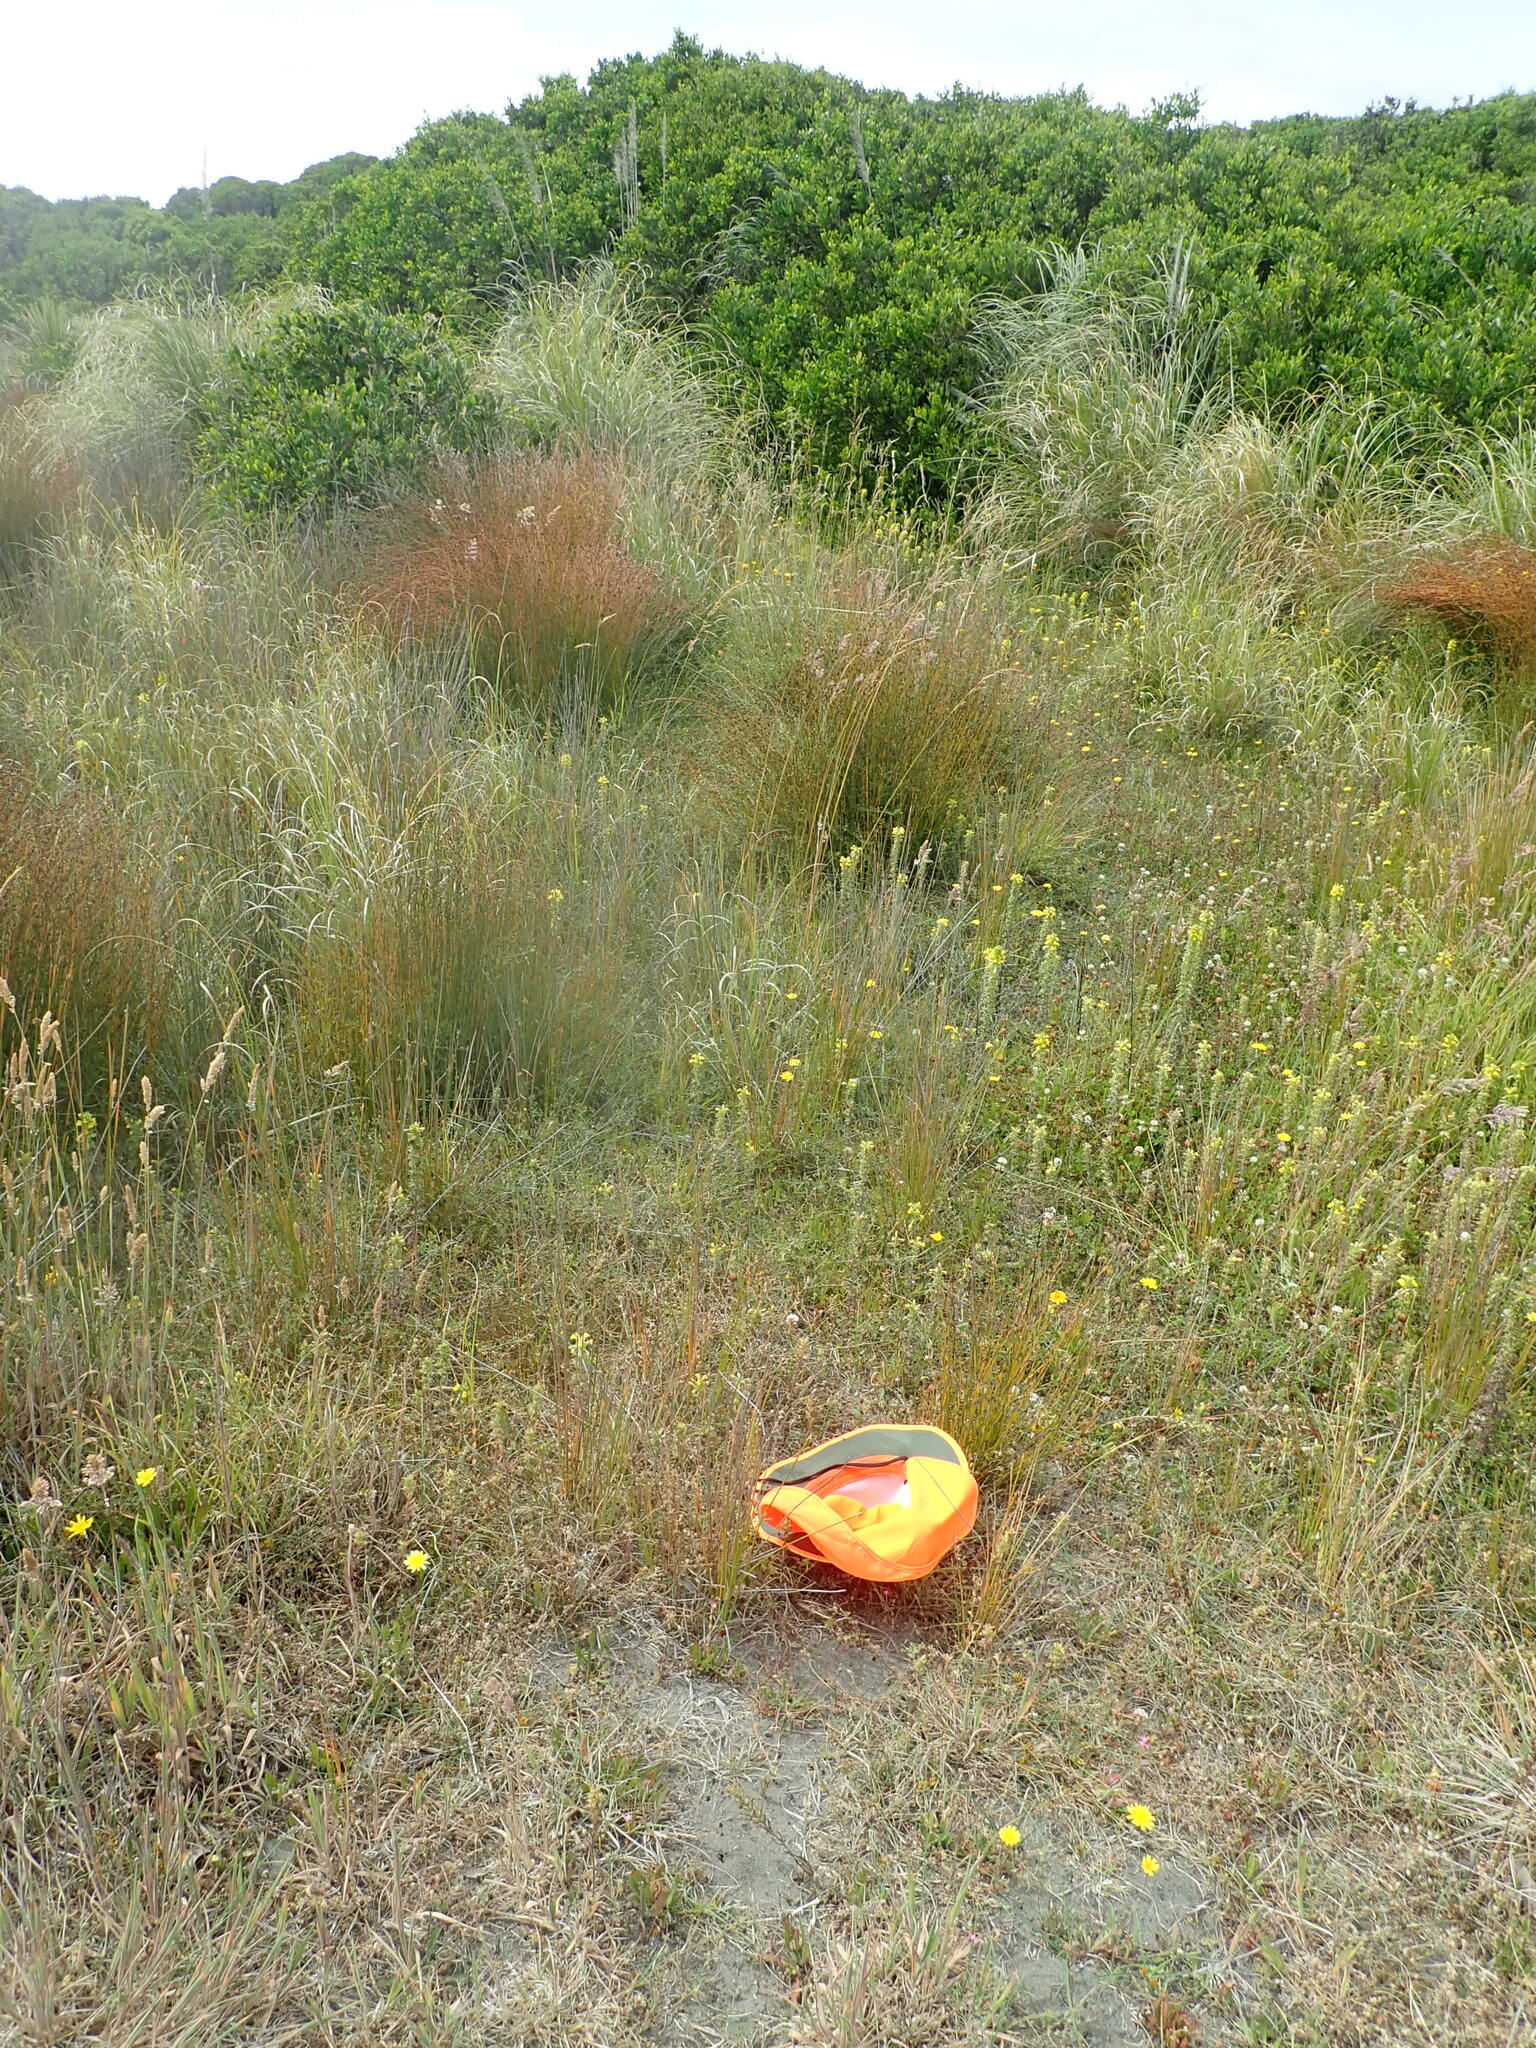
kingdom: Plantae
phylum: Tracheophyta
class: Magnoliopsida
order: Gentianales
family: Gentianaceae
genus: Centaurium
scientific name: Centaurium erythraea
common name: Common centaury
